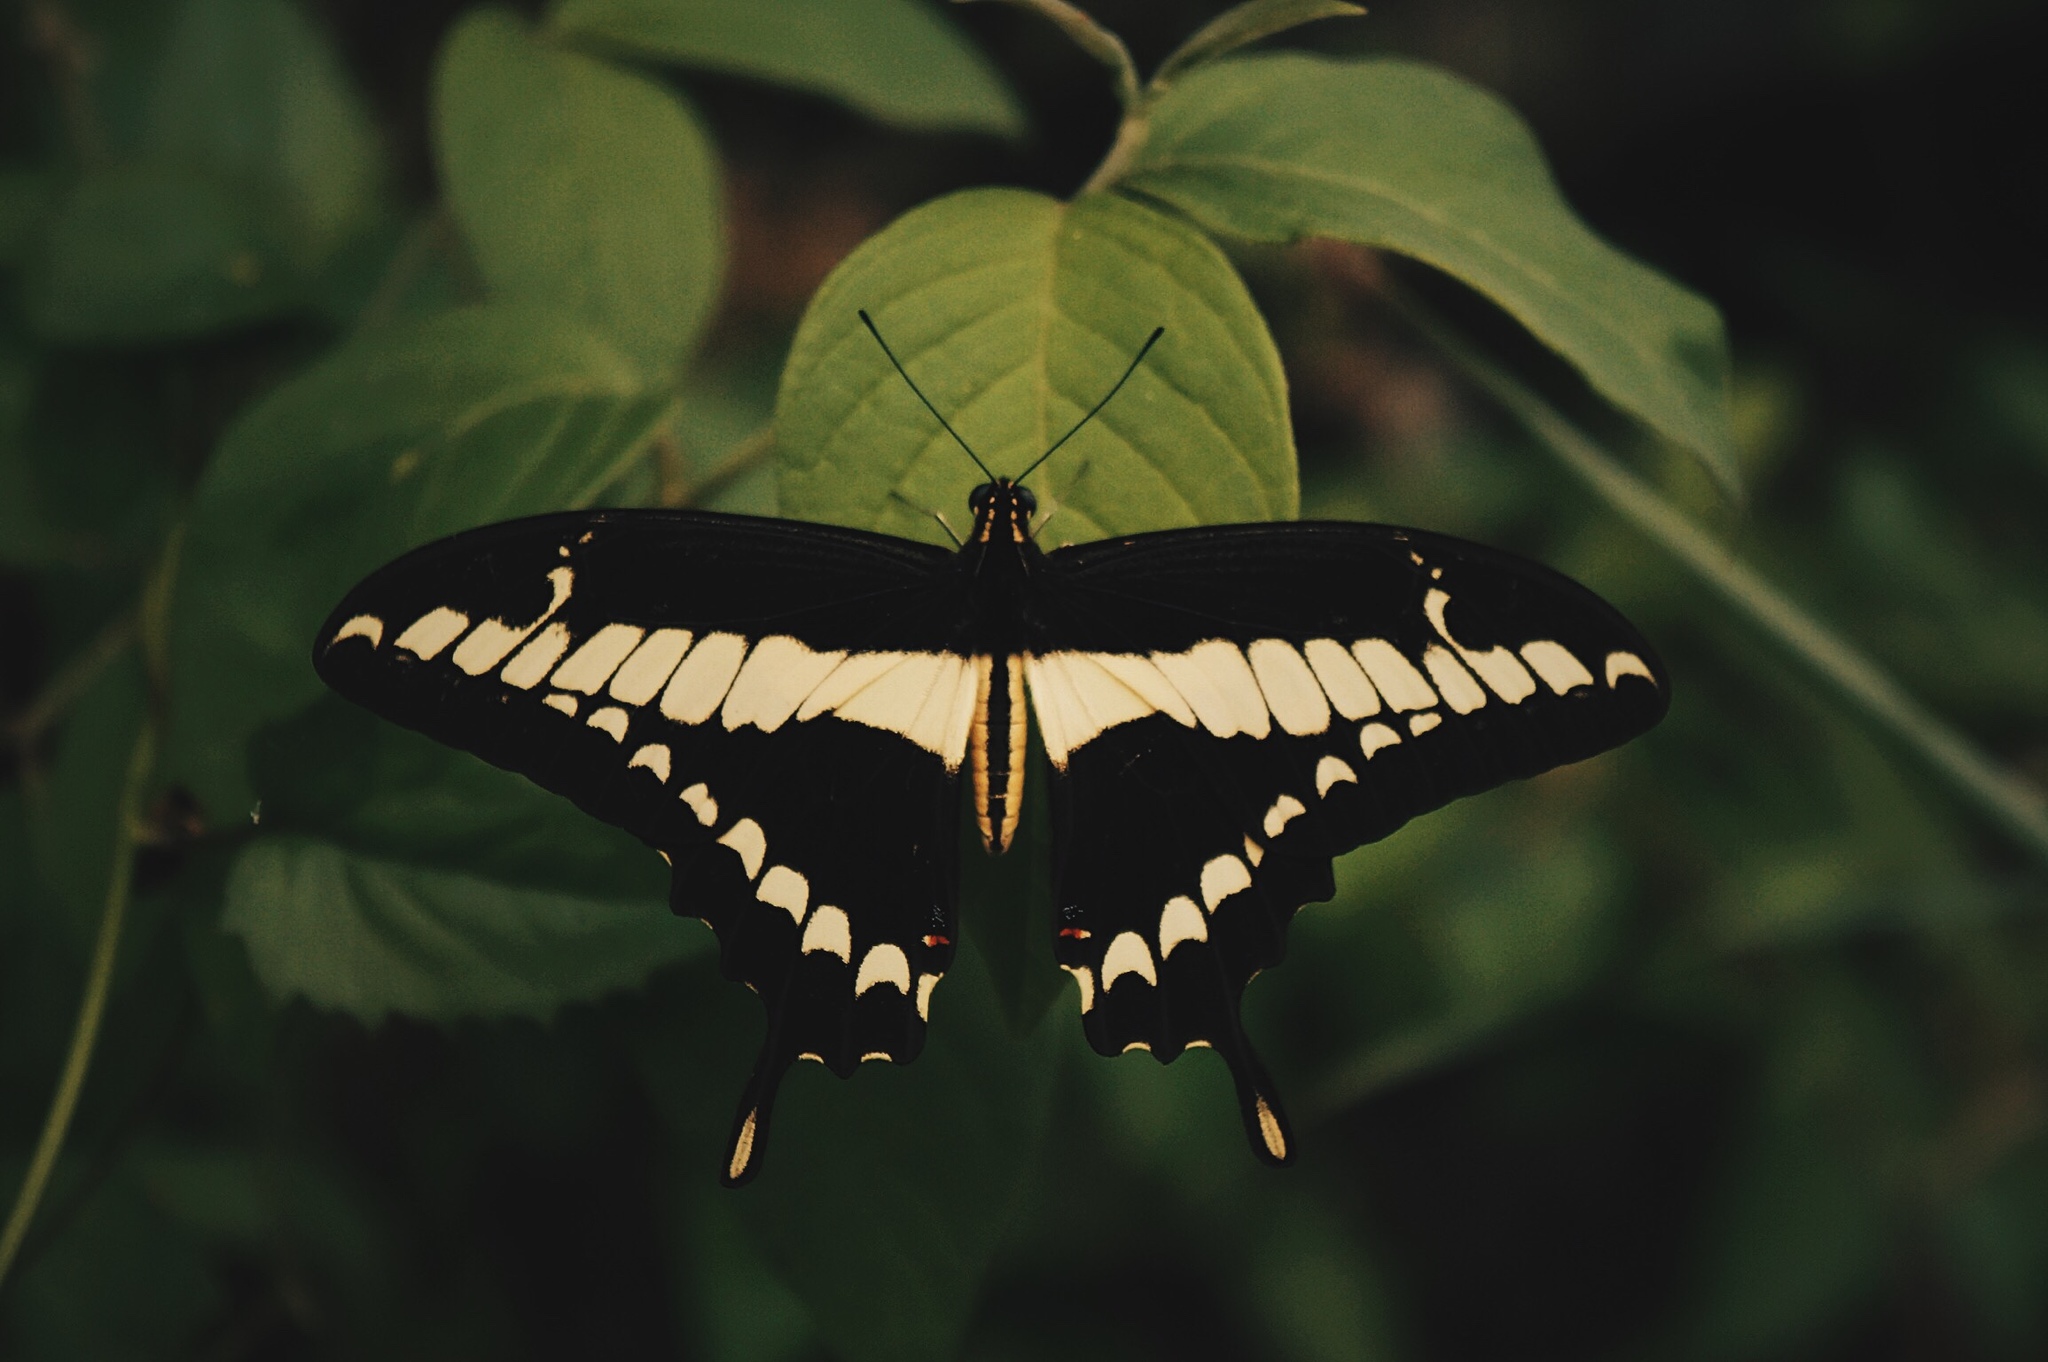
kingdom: Animalia
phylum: Arthropoda
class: Insecta
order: Lepidoptera
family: Papilionidae
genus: Papilio
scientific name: Papilio thoas
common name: King swallowtail
